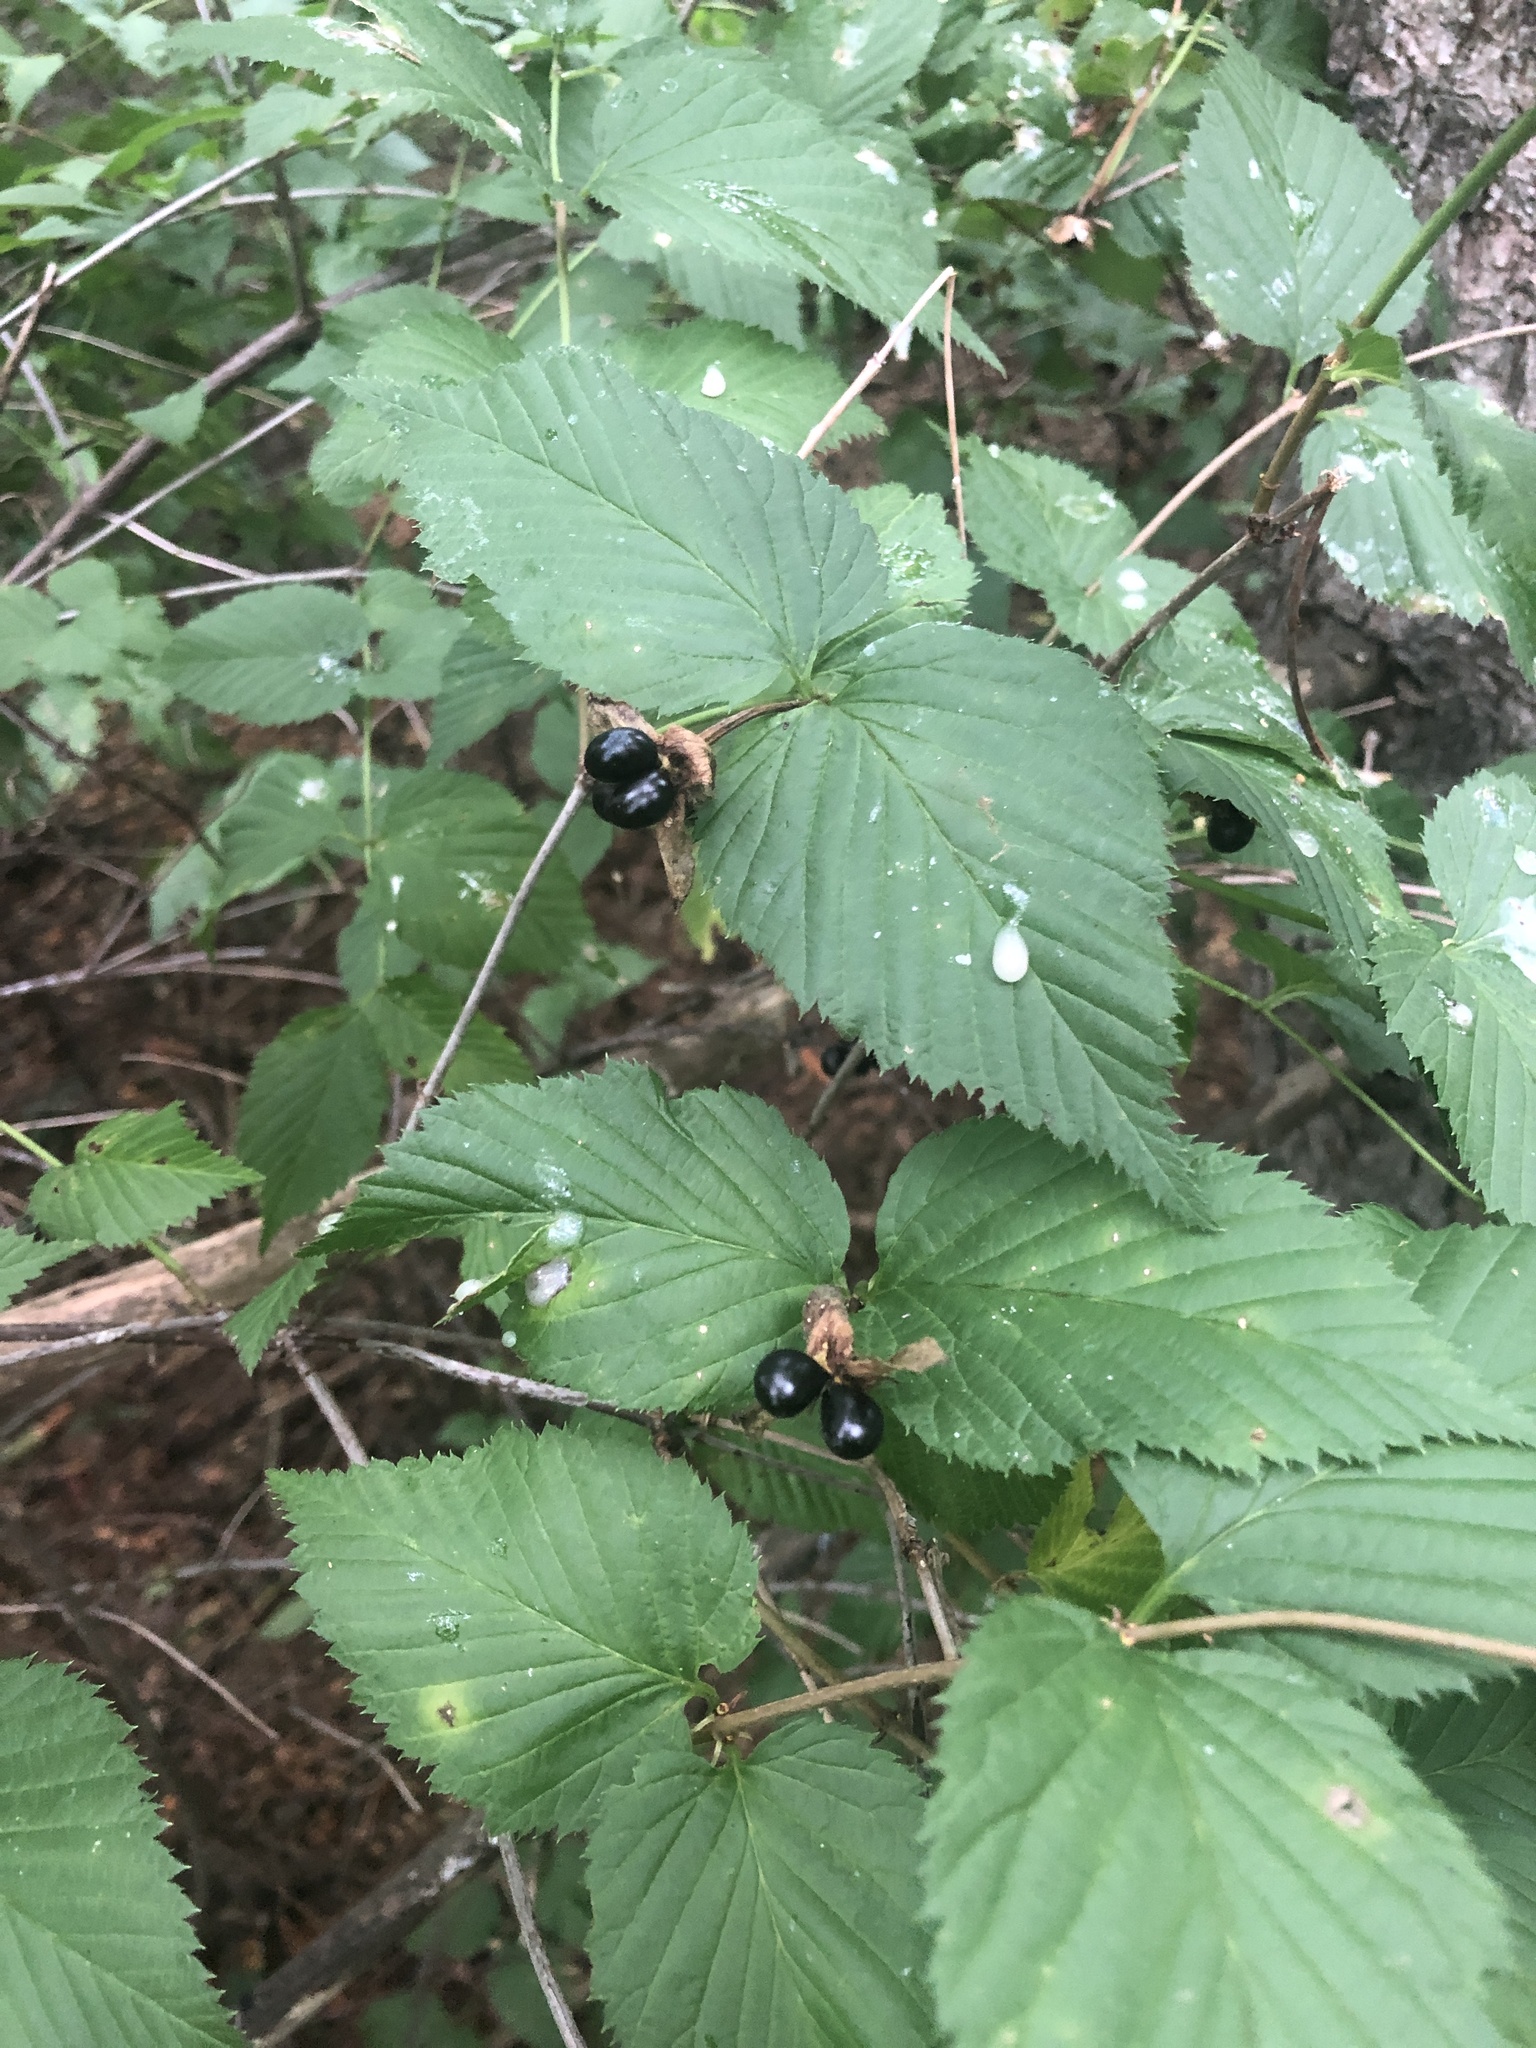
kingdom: Plantae
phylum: Tracheophyta
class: Magnoliopsida
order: Rosales
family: Rosaceae
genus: Rhodotypos
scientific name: Rhodotypos scandens
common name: Jetbead
